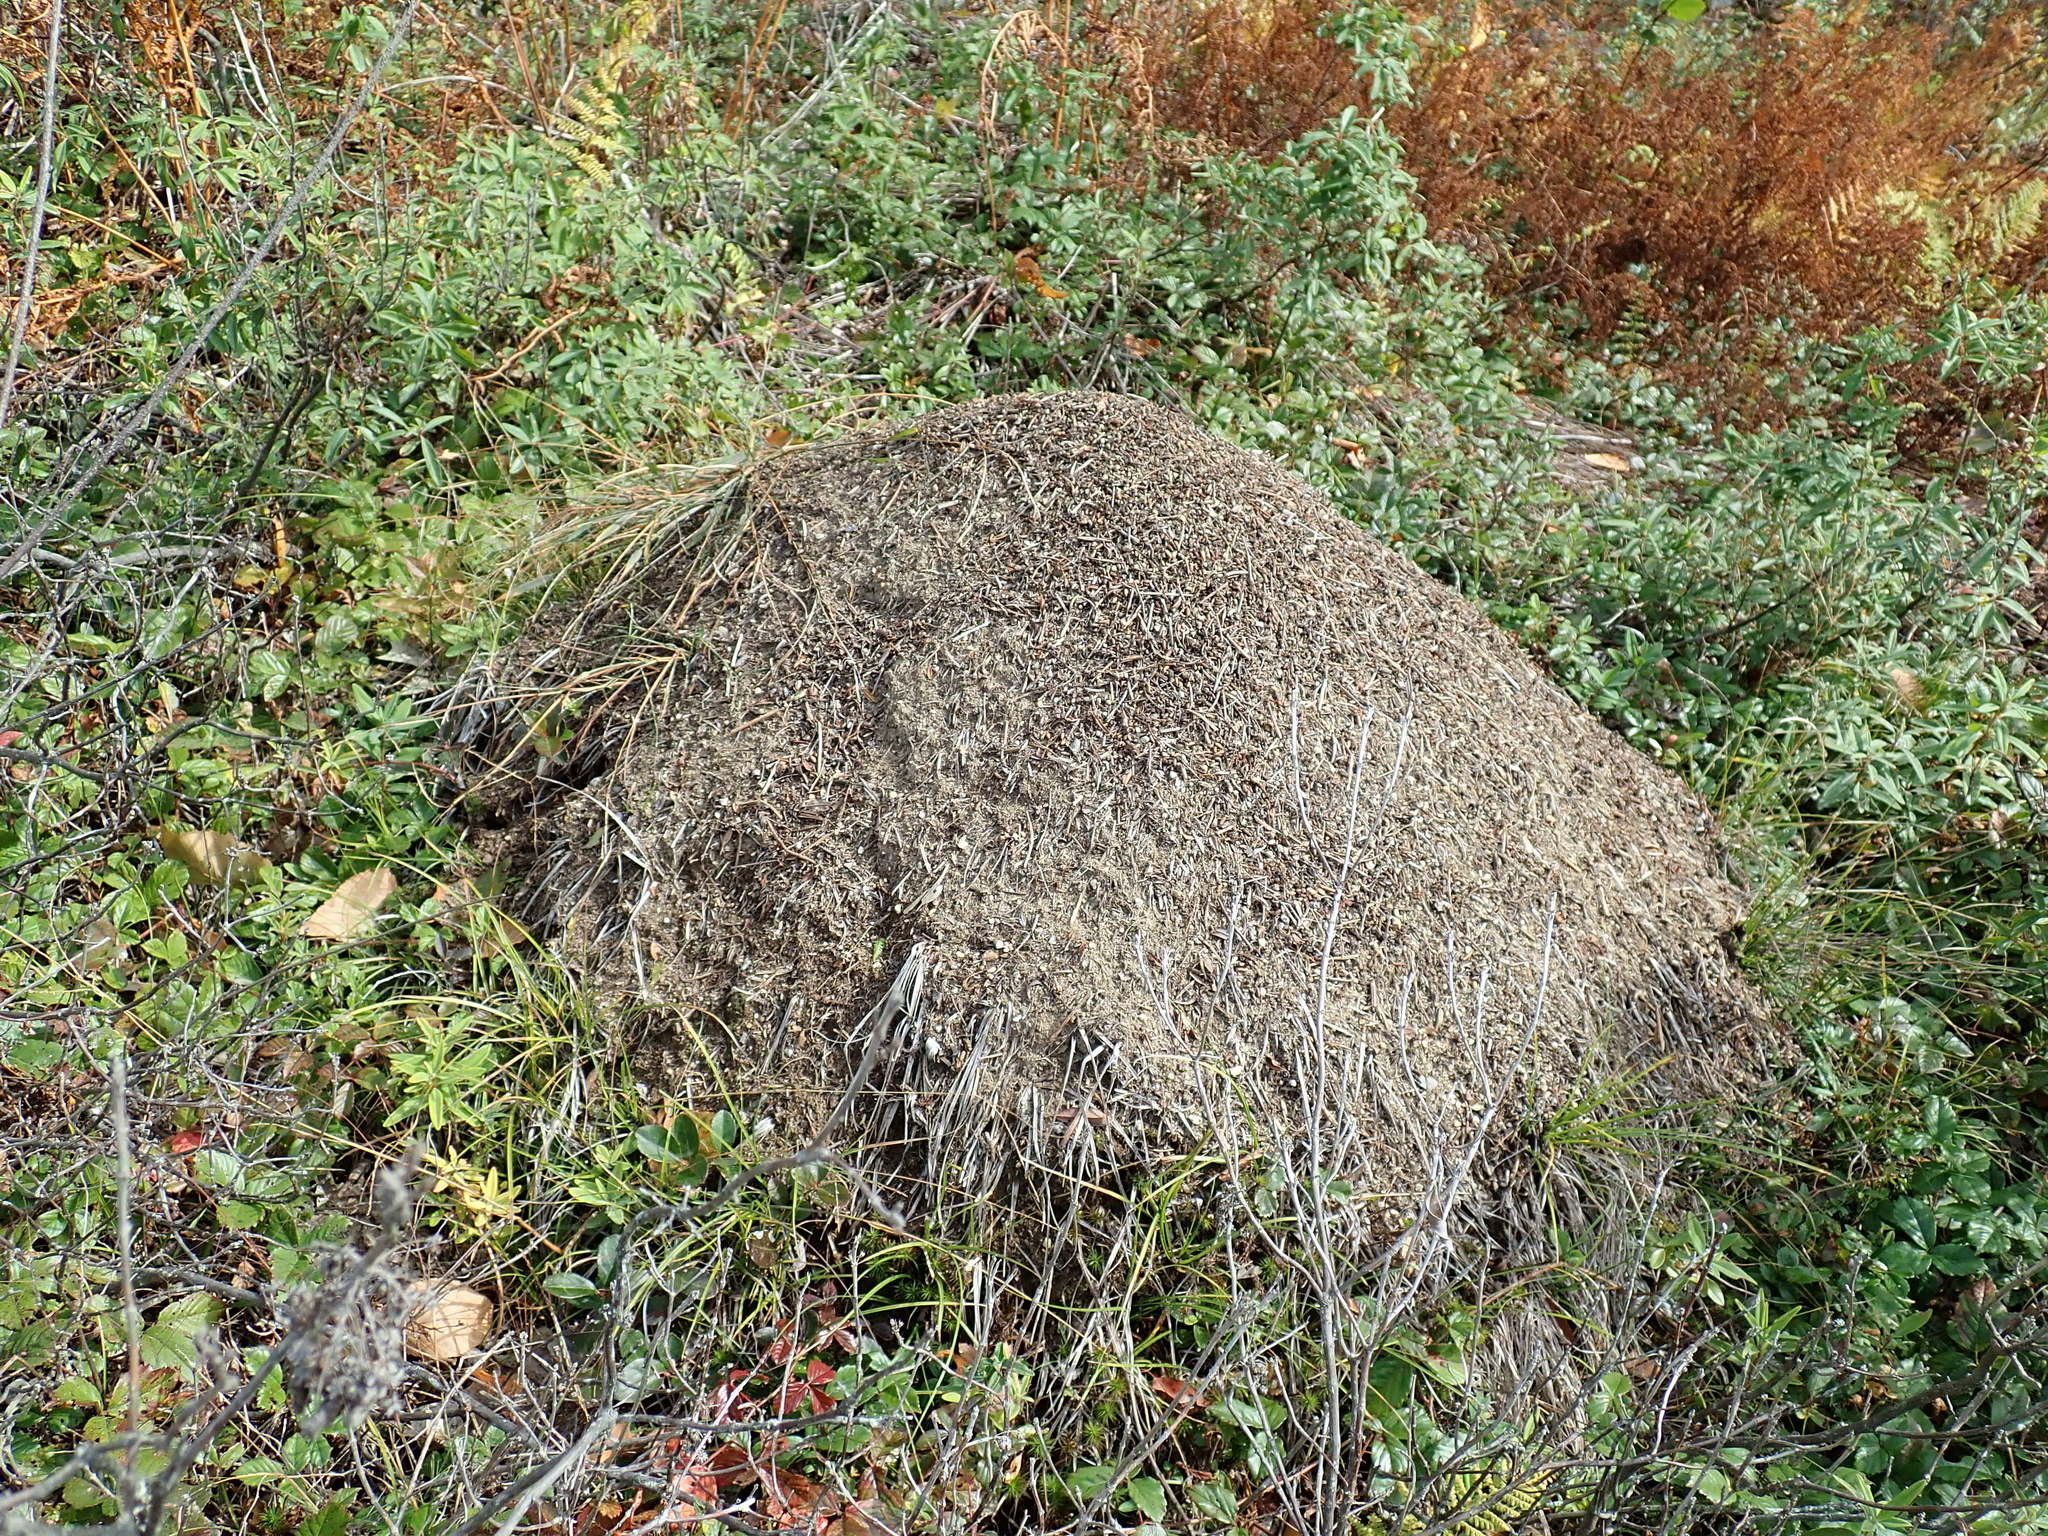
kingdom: Animalia
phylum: Arthropoda
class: Insecta
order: Hymenoptera
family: Formicidae
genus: Formica
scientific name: Formica exsectoides
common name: Allegheny mound ant
